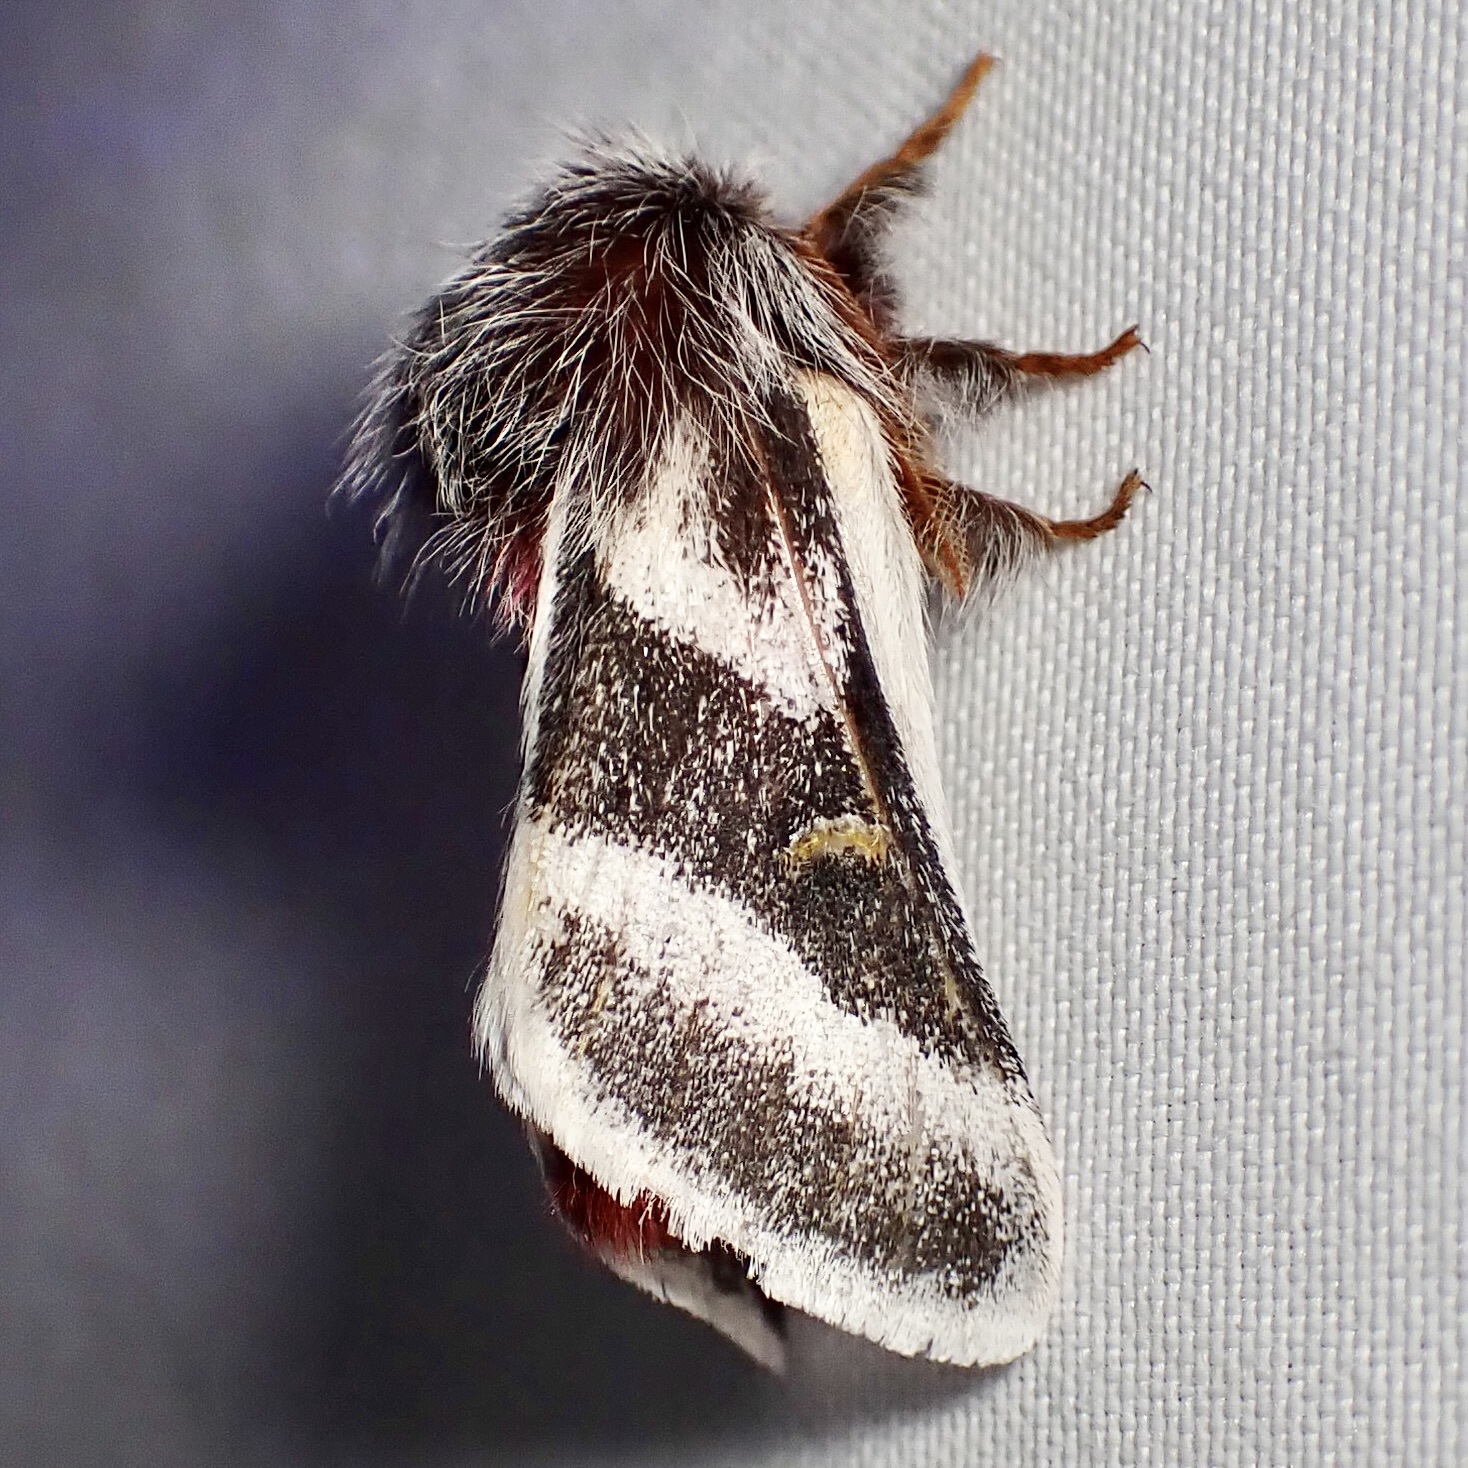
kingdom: Animalia
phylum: Arthropoda
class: Insecta
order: Lepidoptera
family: Saturniidae
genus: Hemileuca
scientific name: Hemileuca tricolor
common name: Tricolor buckmoth
